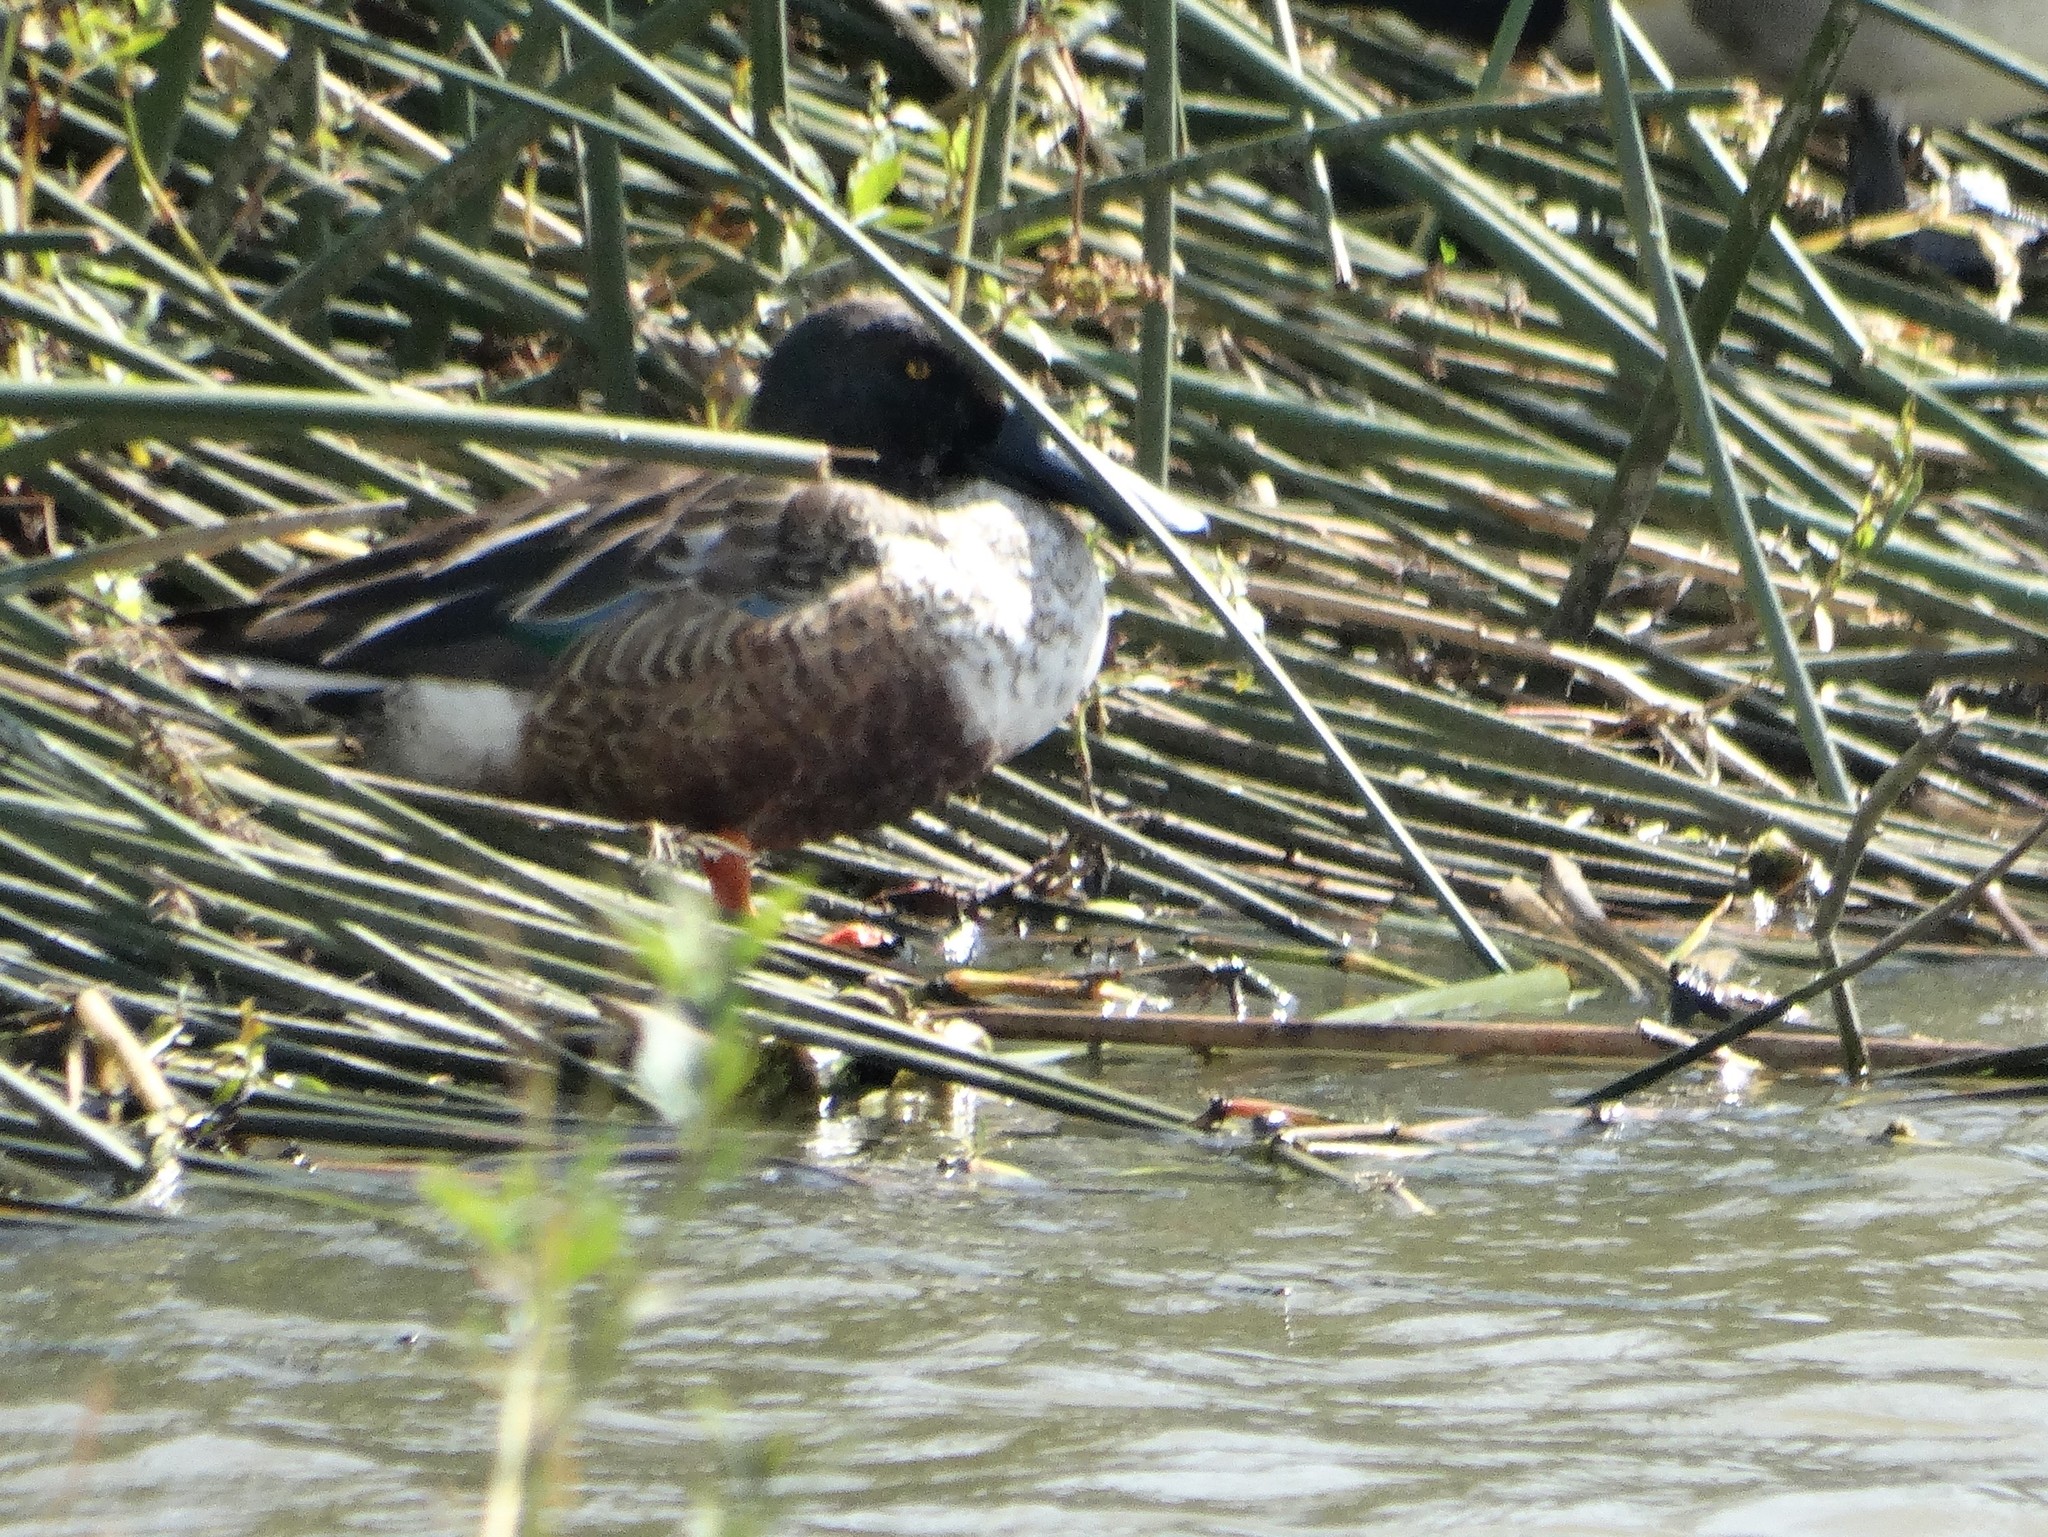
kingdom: Animalia
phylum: Chordata
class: Aves
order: Anseriformes
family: Anatidae
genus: Spatula
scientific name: Spatula clypeata
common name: Northern shoveler
